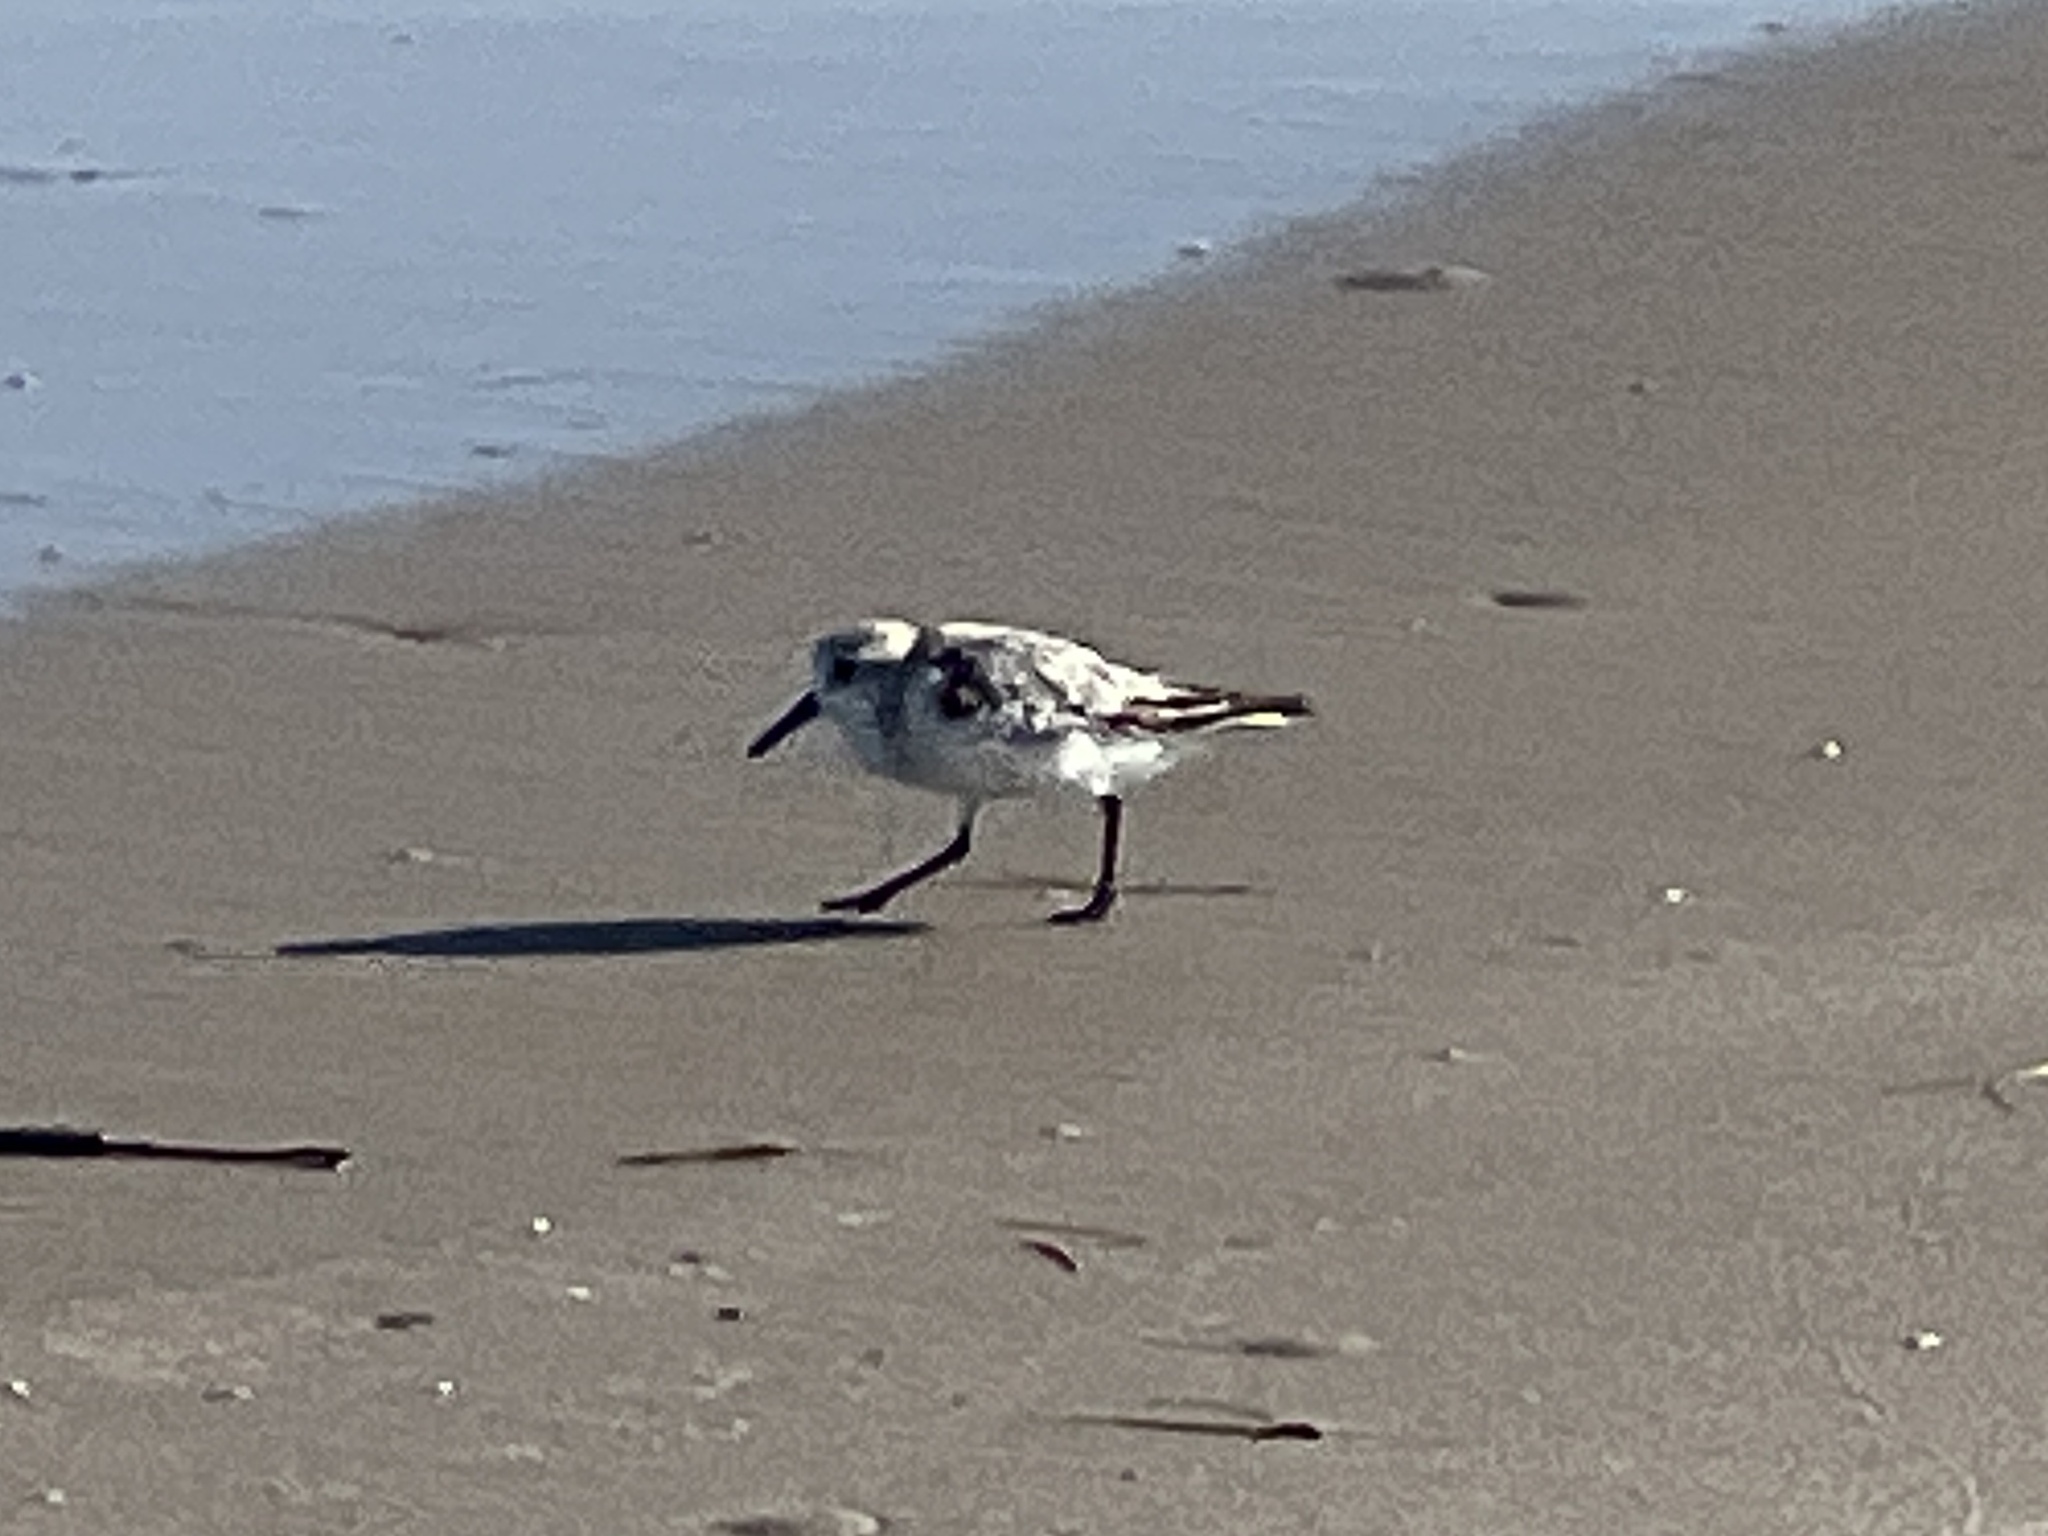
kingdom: Animalia
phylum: Chordata
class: Aves
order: Charadriiformes
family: Scolopacidae
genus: Calidris
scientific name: Calidris alba
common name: Sanderling
